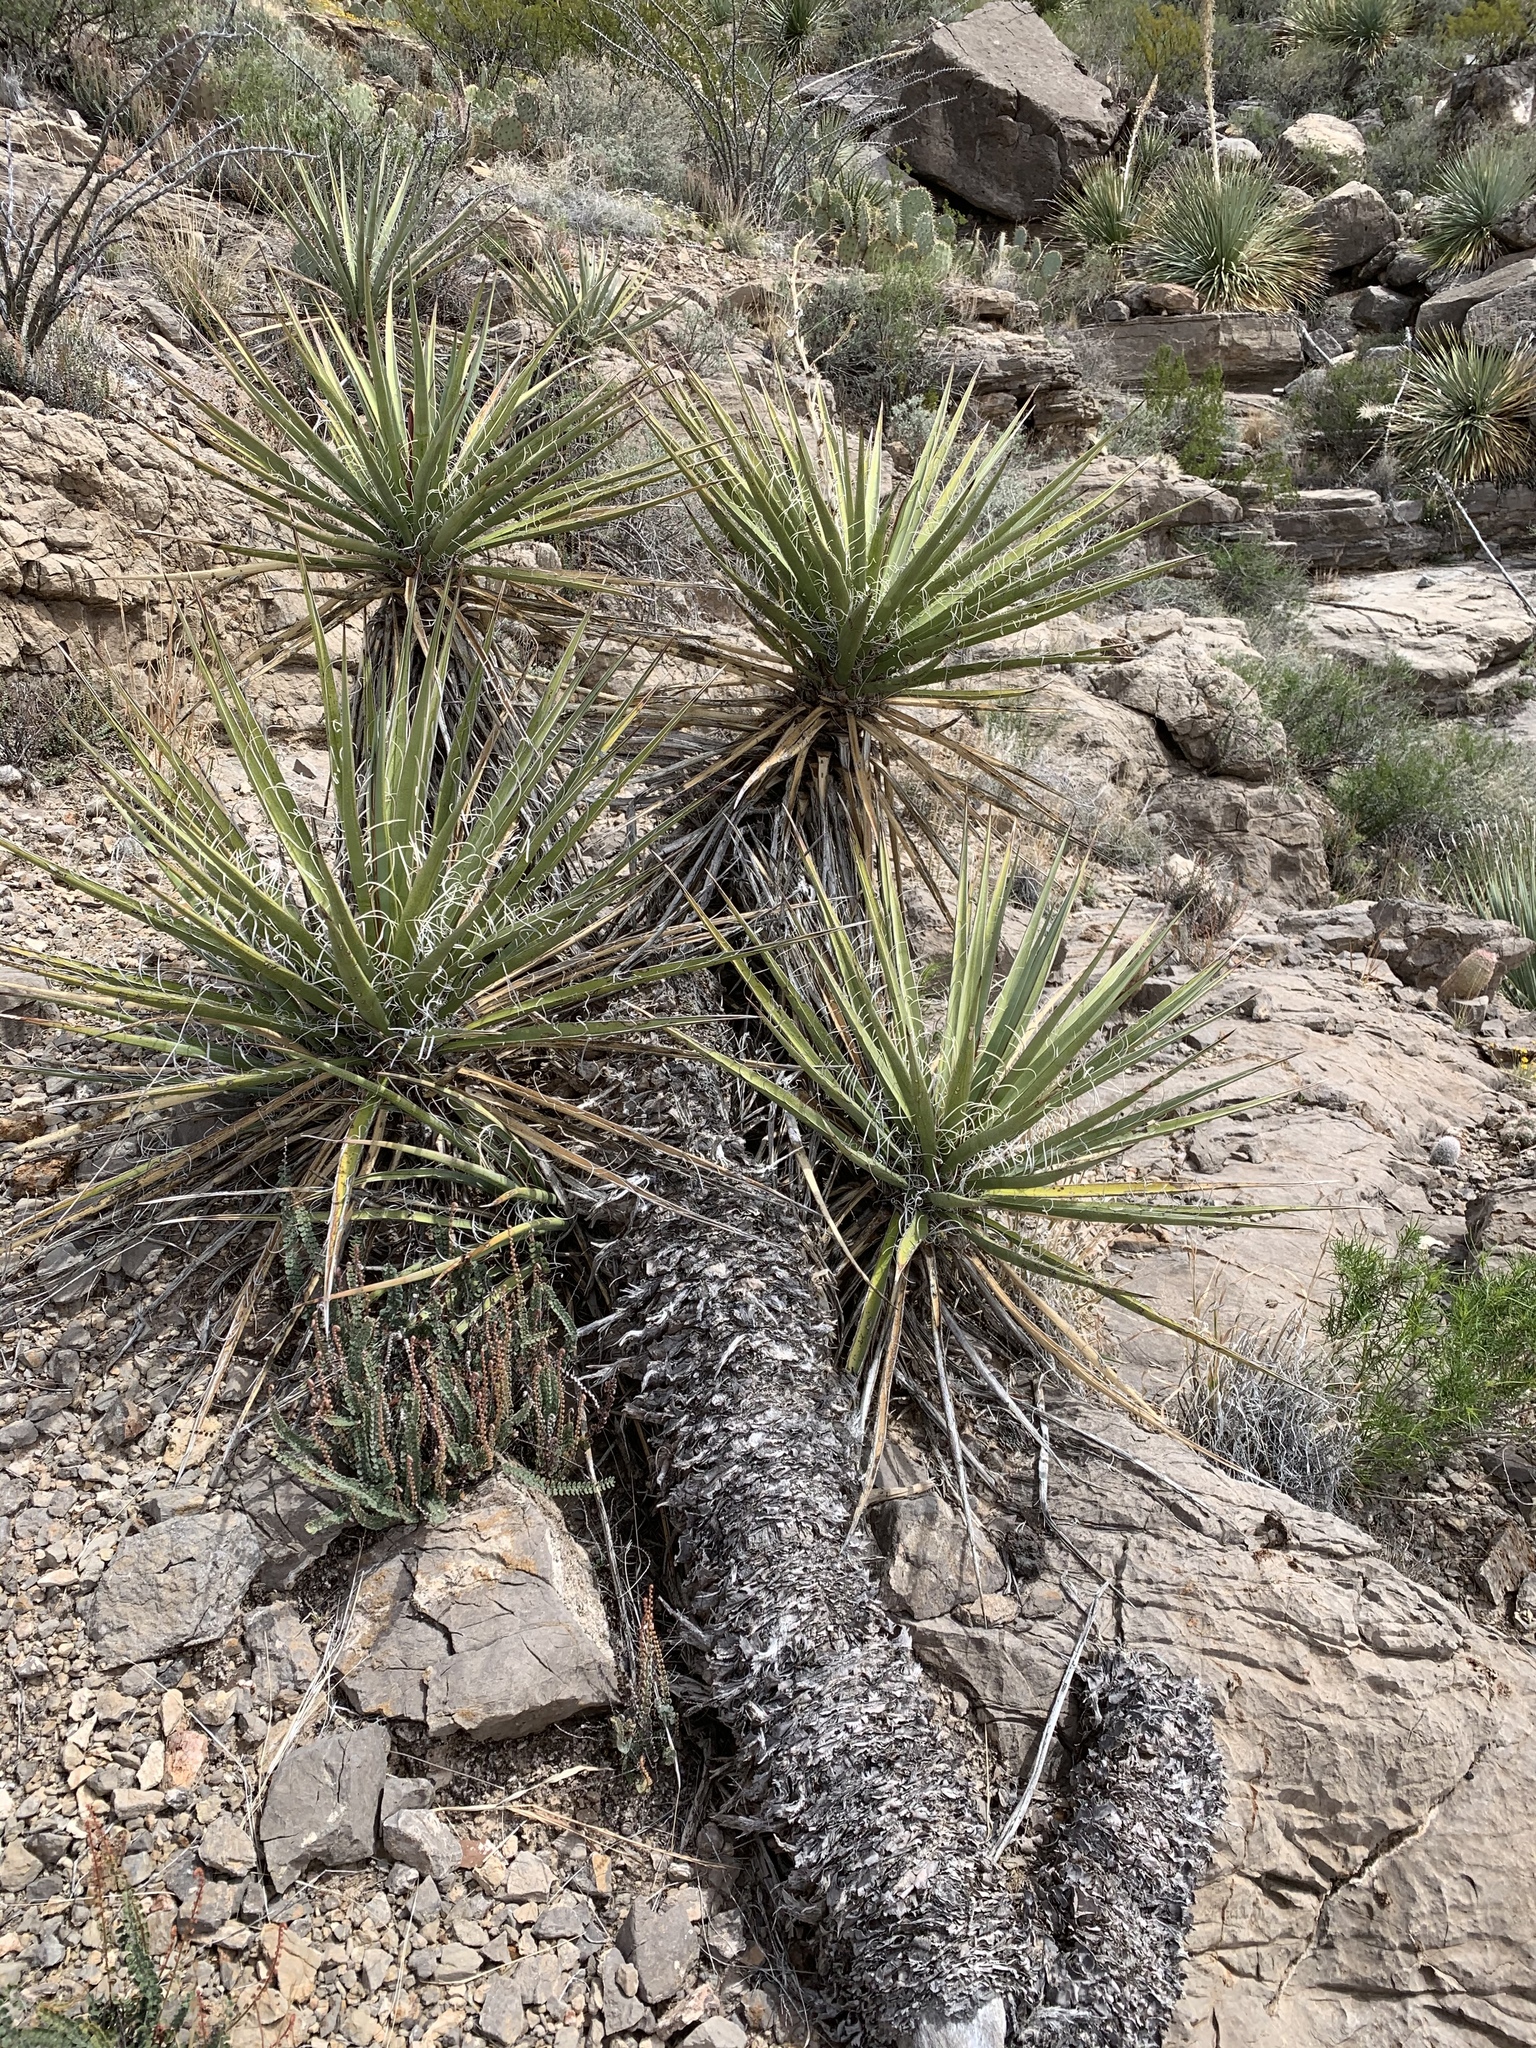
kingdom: Plantae
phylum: Tracheophyta
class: Liliopsida
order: Asparagales
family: Asparagaceae
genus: Yucca
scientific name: Yucca baccata
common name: Banana yucca
